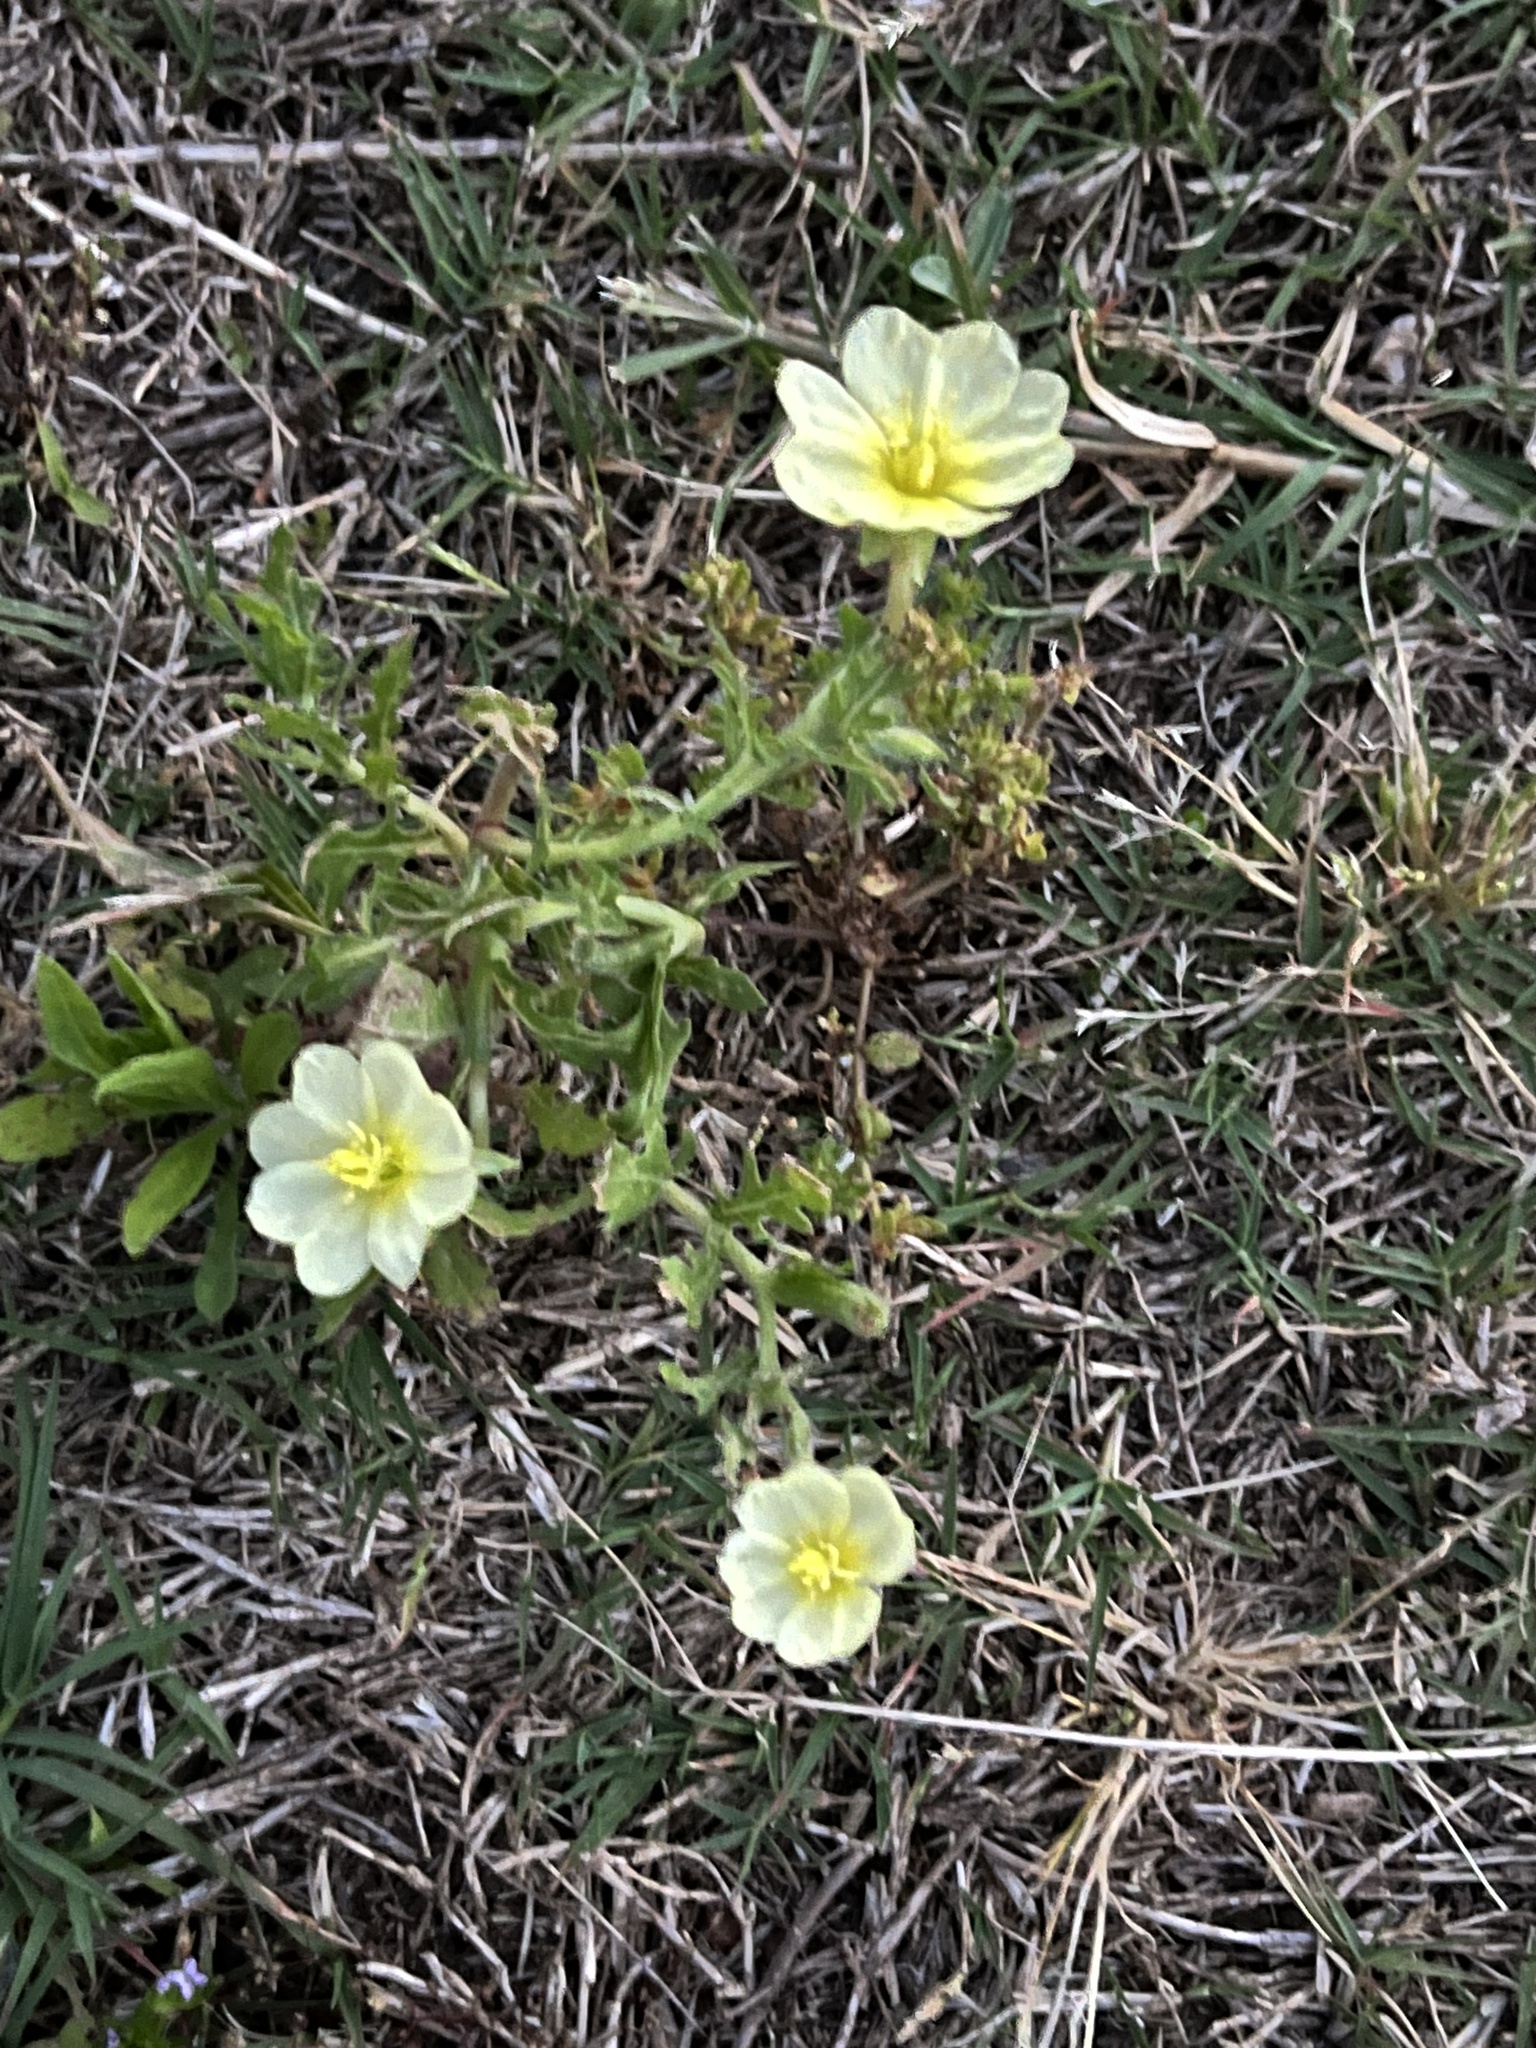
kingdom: Plantae
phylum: Tracheophyta
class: Magnoliopsida
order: Myrtales
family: Onagraceae
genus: Oenothera
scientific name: Oenothera laciniata
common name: Cut-leaved evening-primrose
